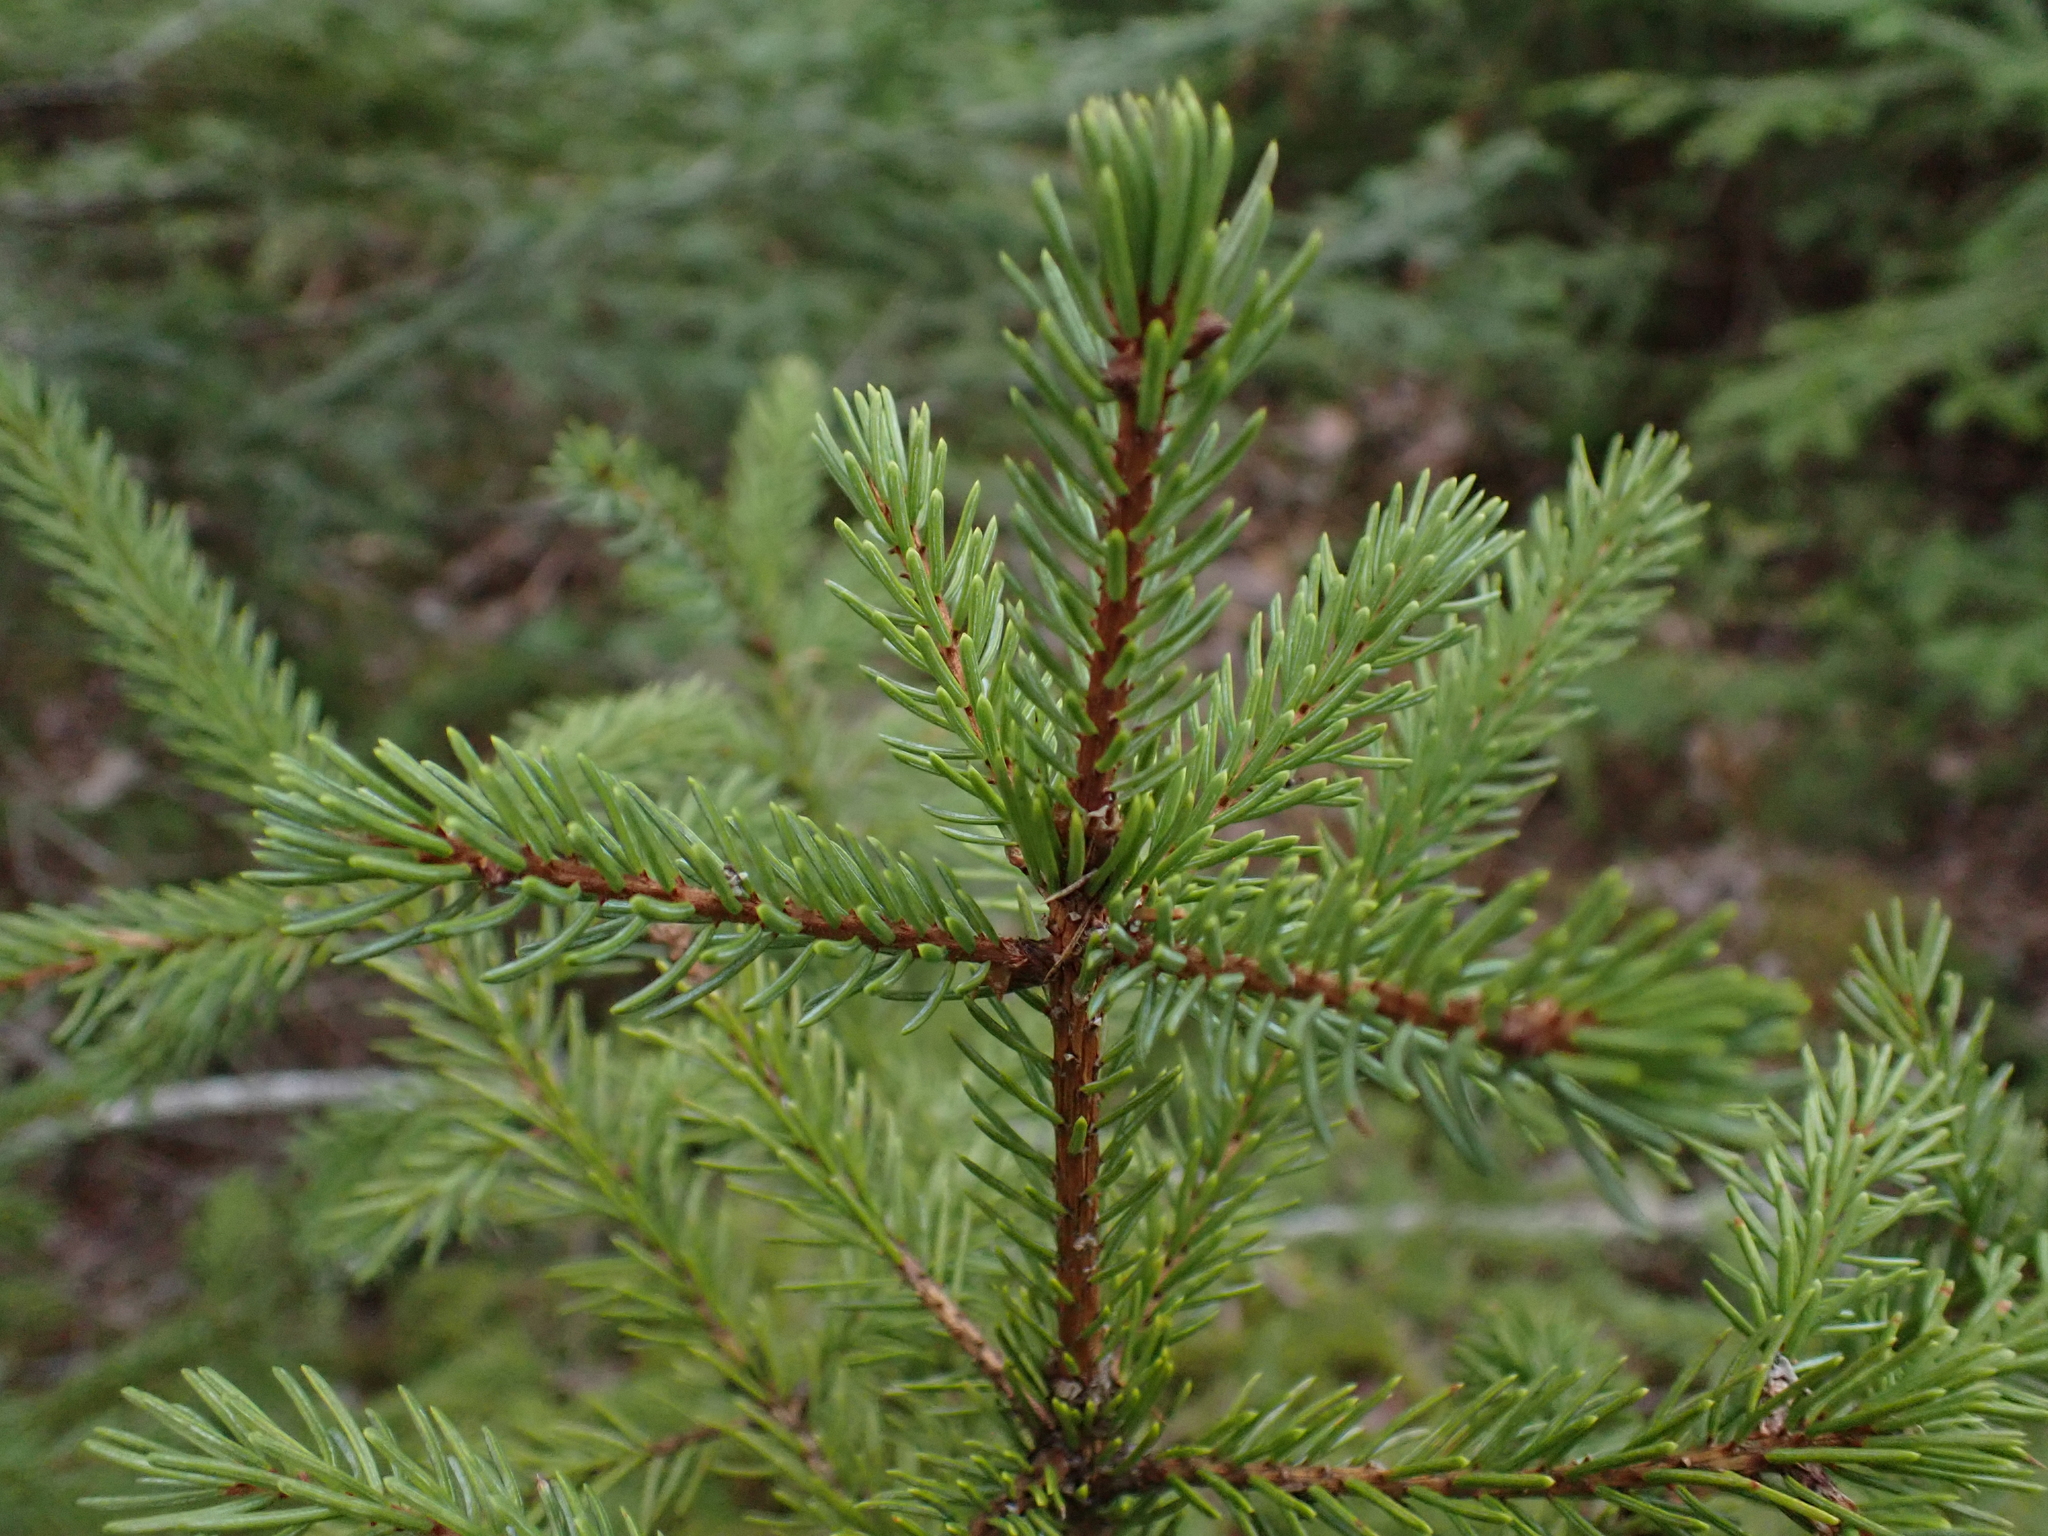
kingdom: Plantae
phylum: Tracheophyta
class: Pinopsida
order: Pinales
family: Pinaceae
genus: Picea
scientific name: Picea rubens
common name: Red spruce
